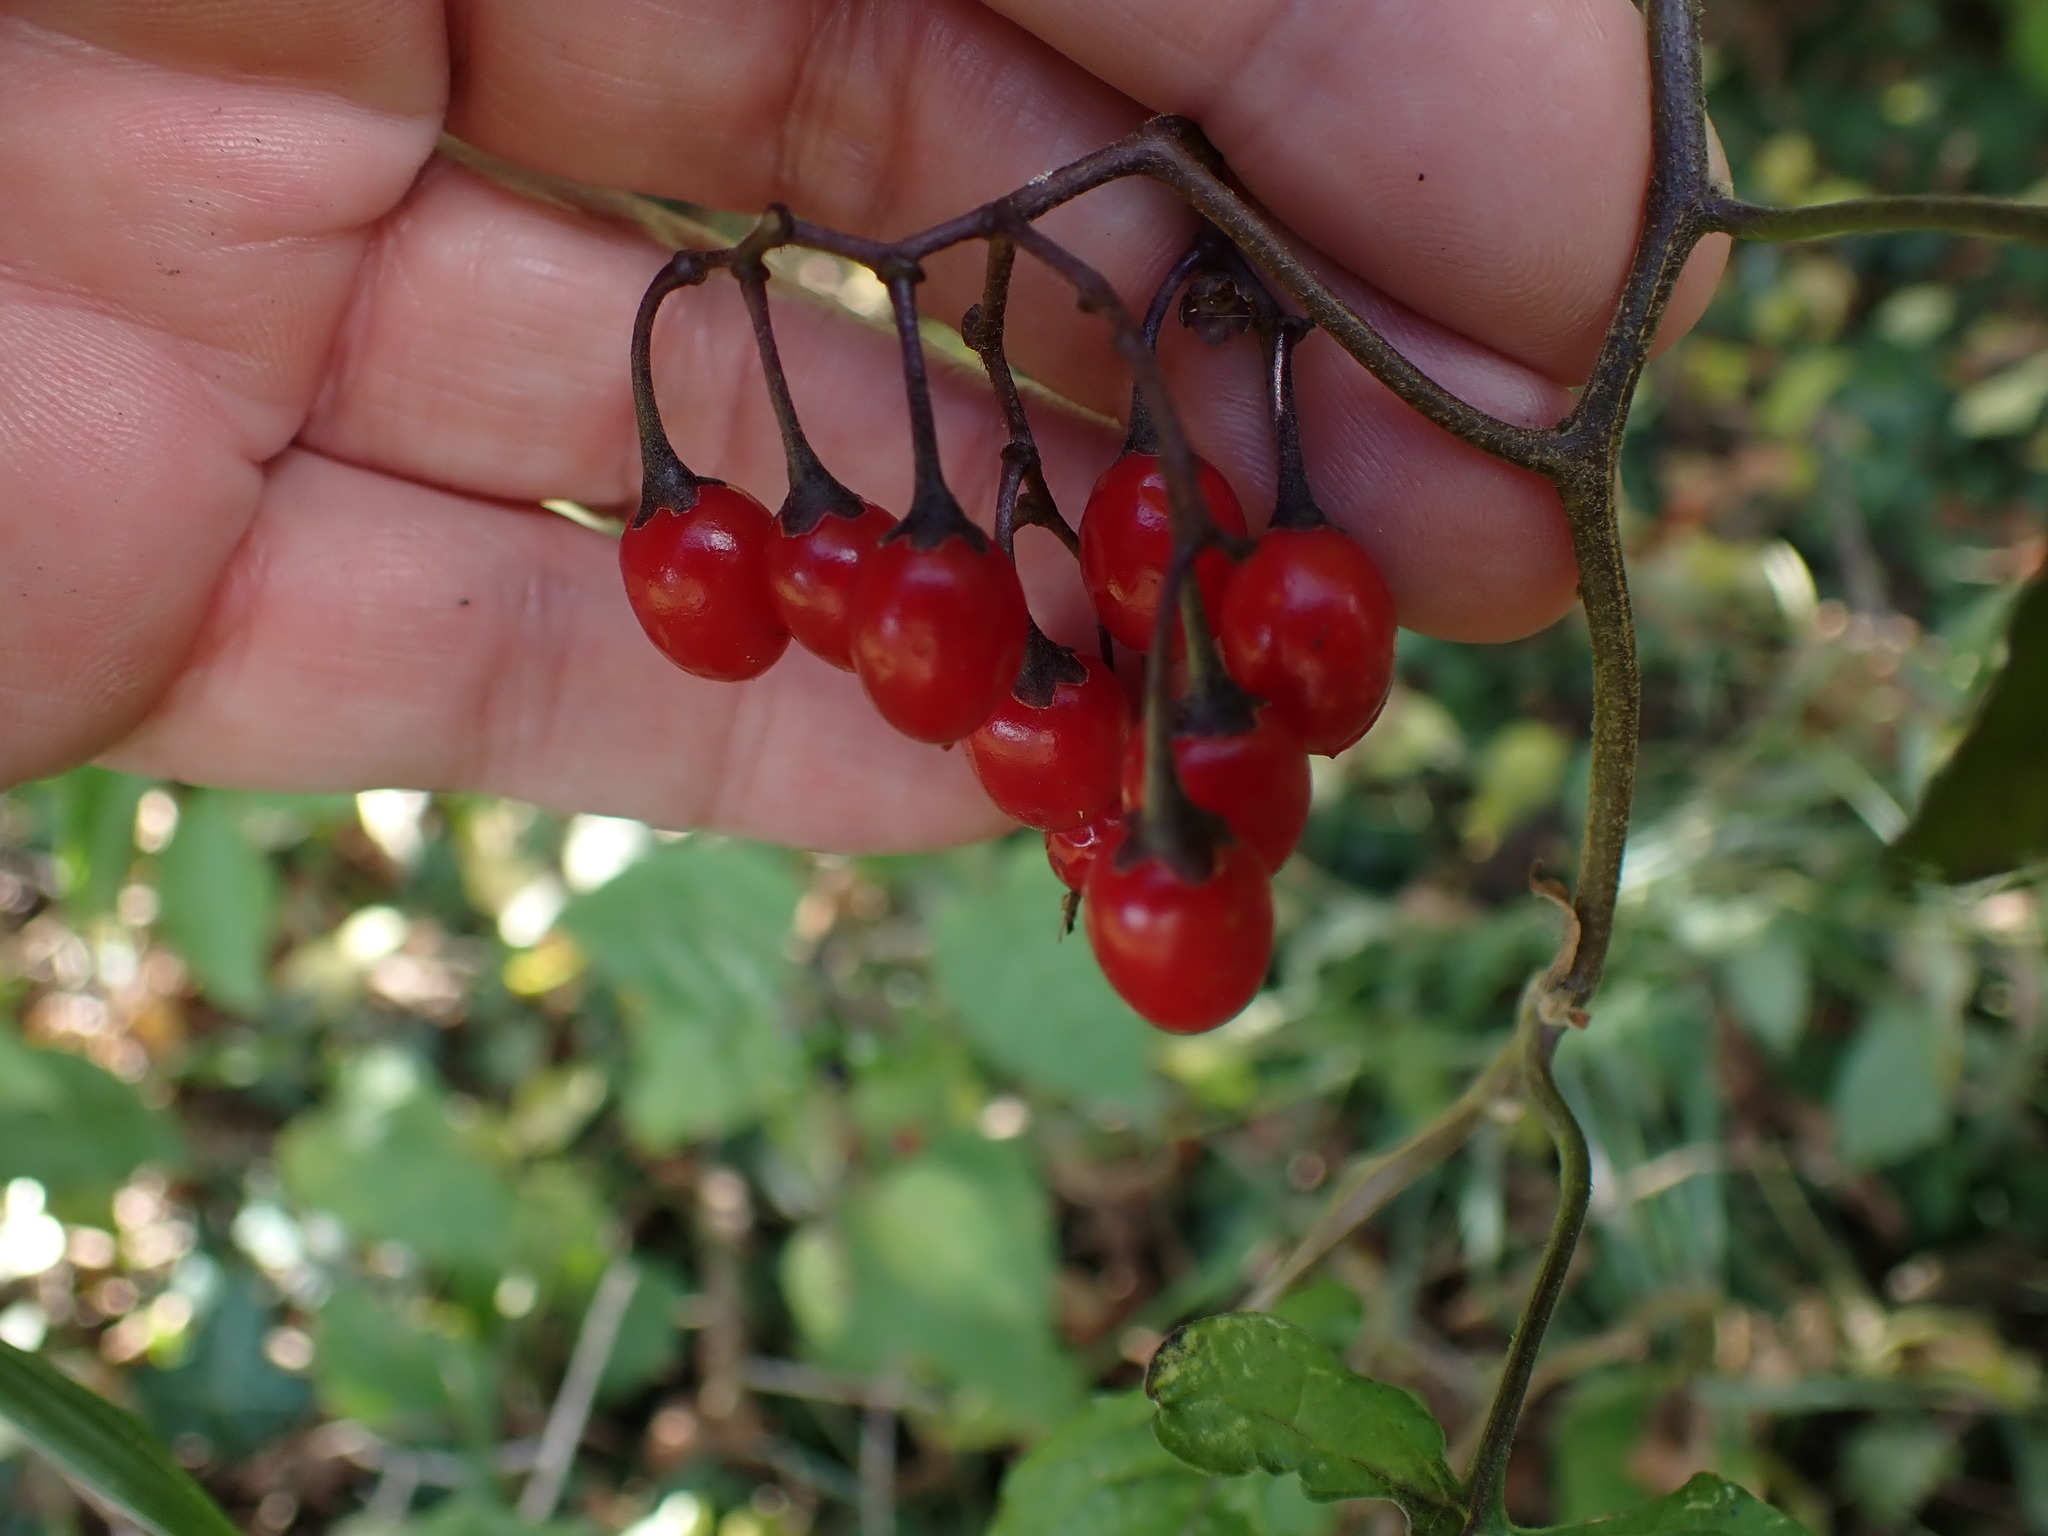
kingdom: Plantae
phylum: Tracheophyta
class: Magnoliopsida
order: Solanales
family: Solanaceae
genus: Solanum
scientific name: Solanum dulcamara
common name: Climbing nightshade
